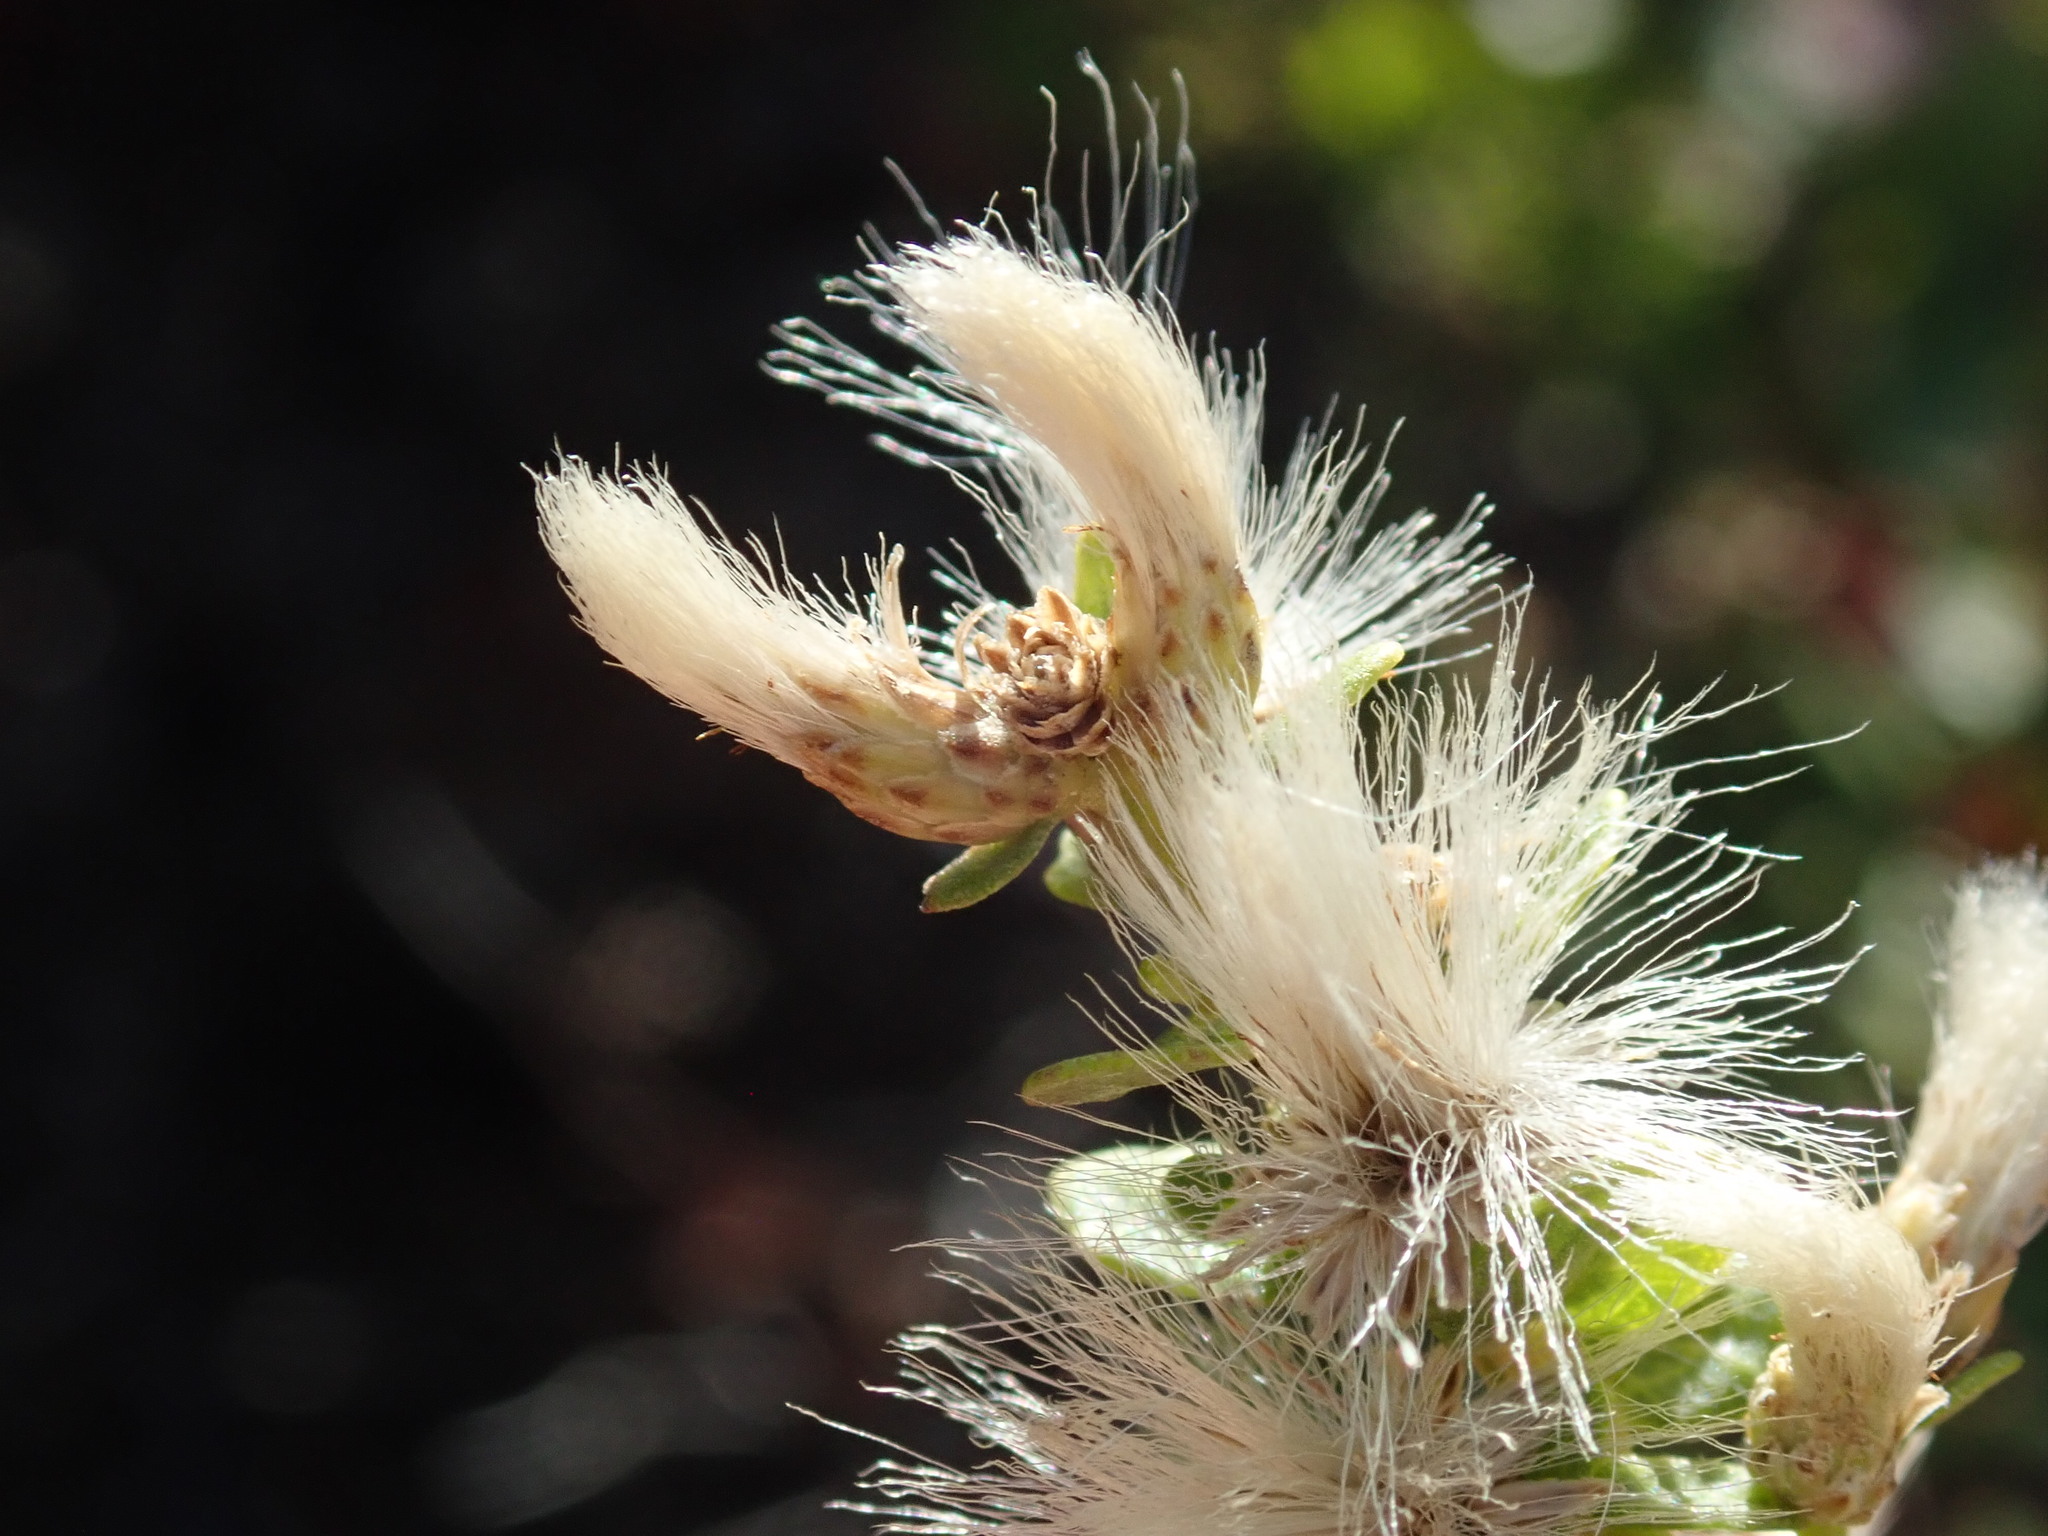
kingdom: Plantae
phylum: Tracheophyta
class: Magnoliopsida
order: Asterales
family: Asteraceae
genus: Baccharis
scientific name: Baccharis pilularis
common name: Coyotebrush
